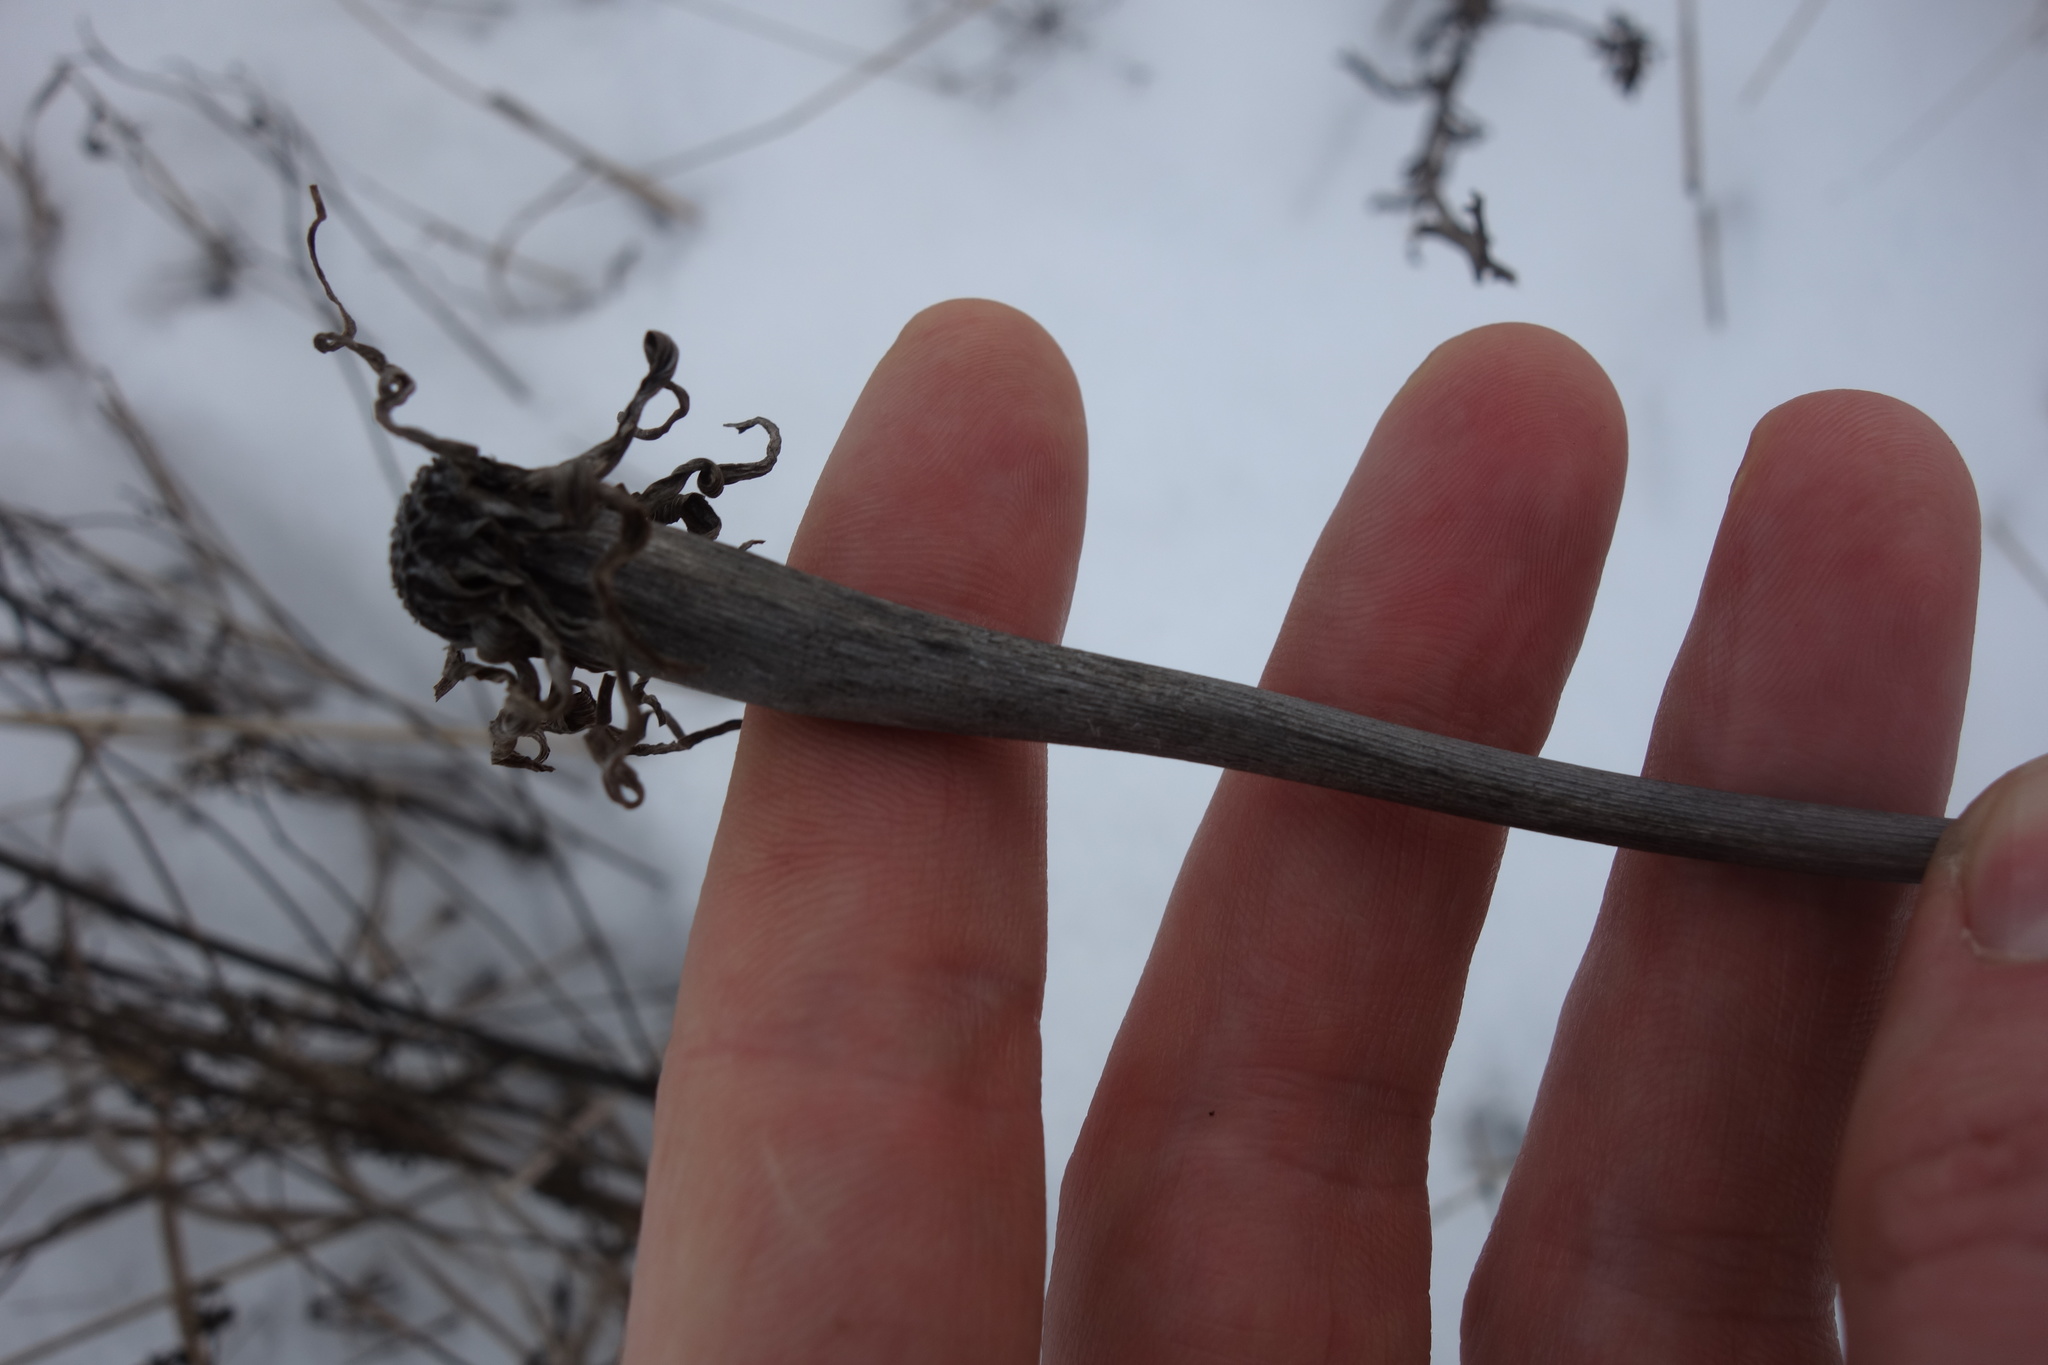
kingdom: Plantae
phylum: Tracheophyta
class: Magnoliopsida
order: Asterales
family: Asteraceae
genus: Tragopogon
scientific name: Tragopogon dubius
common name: Yellow salsify
